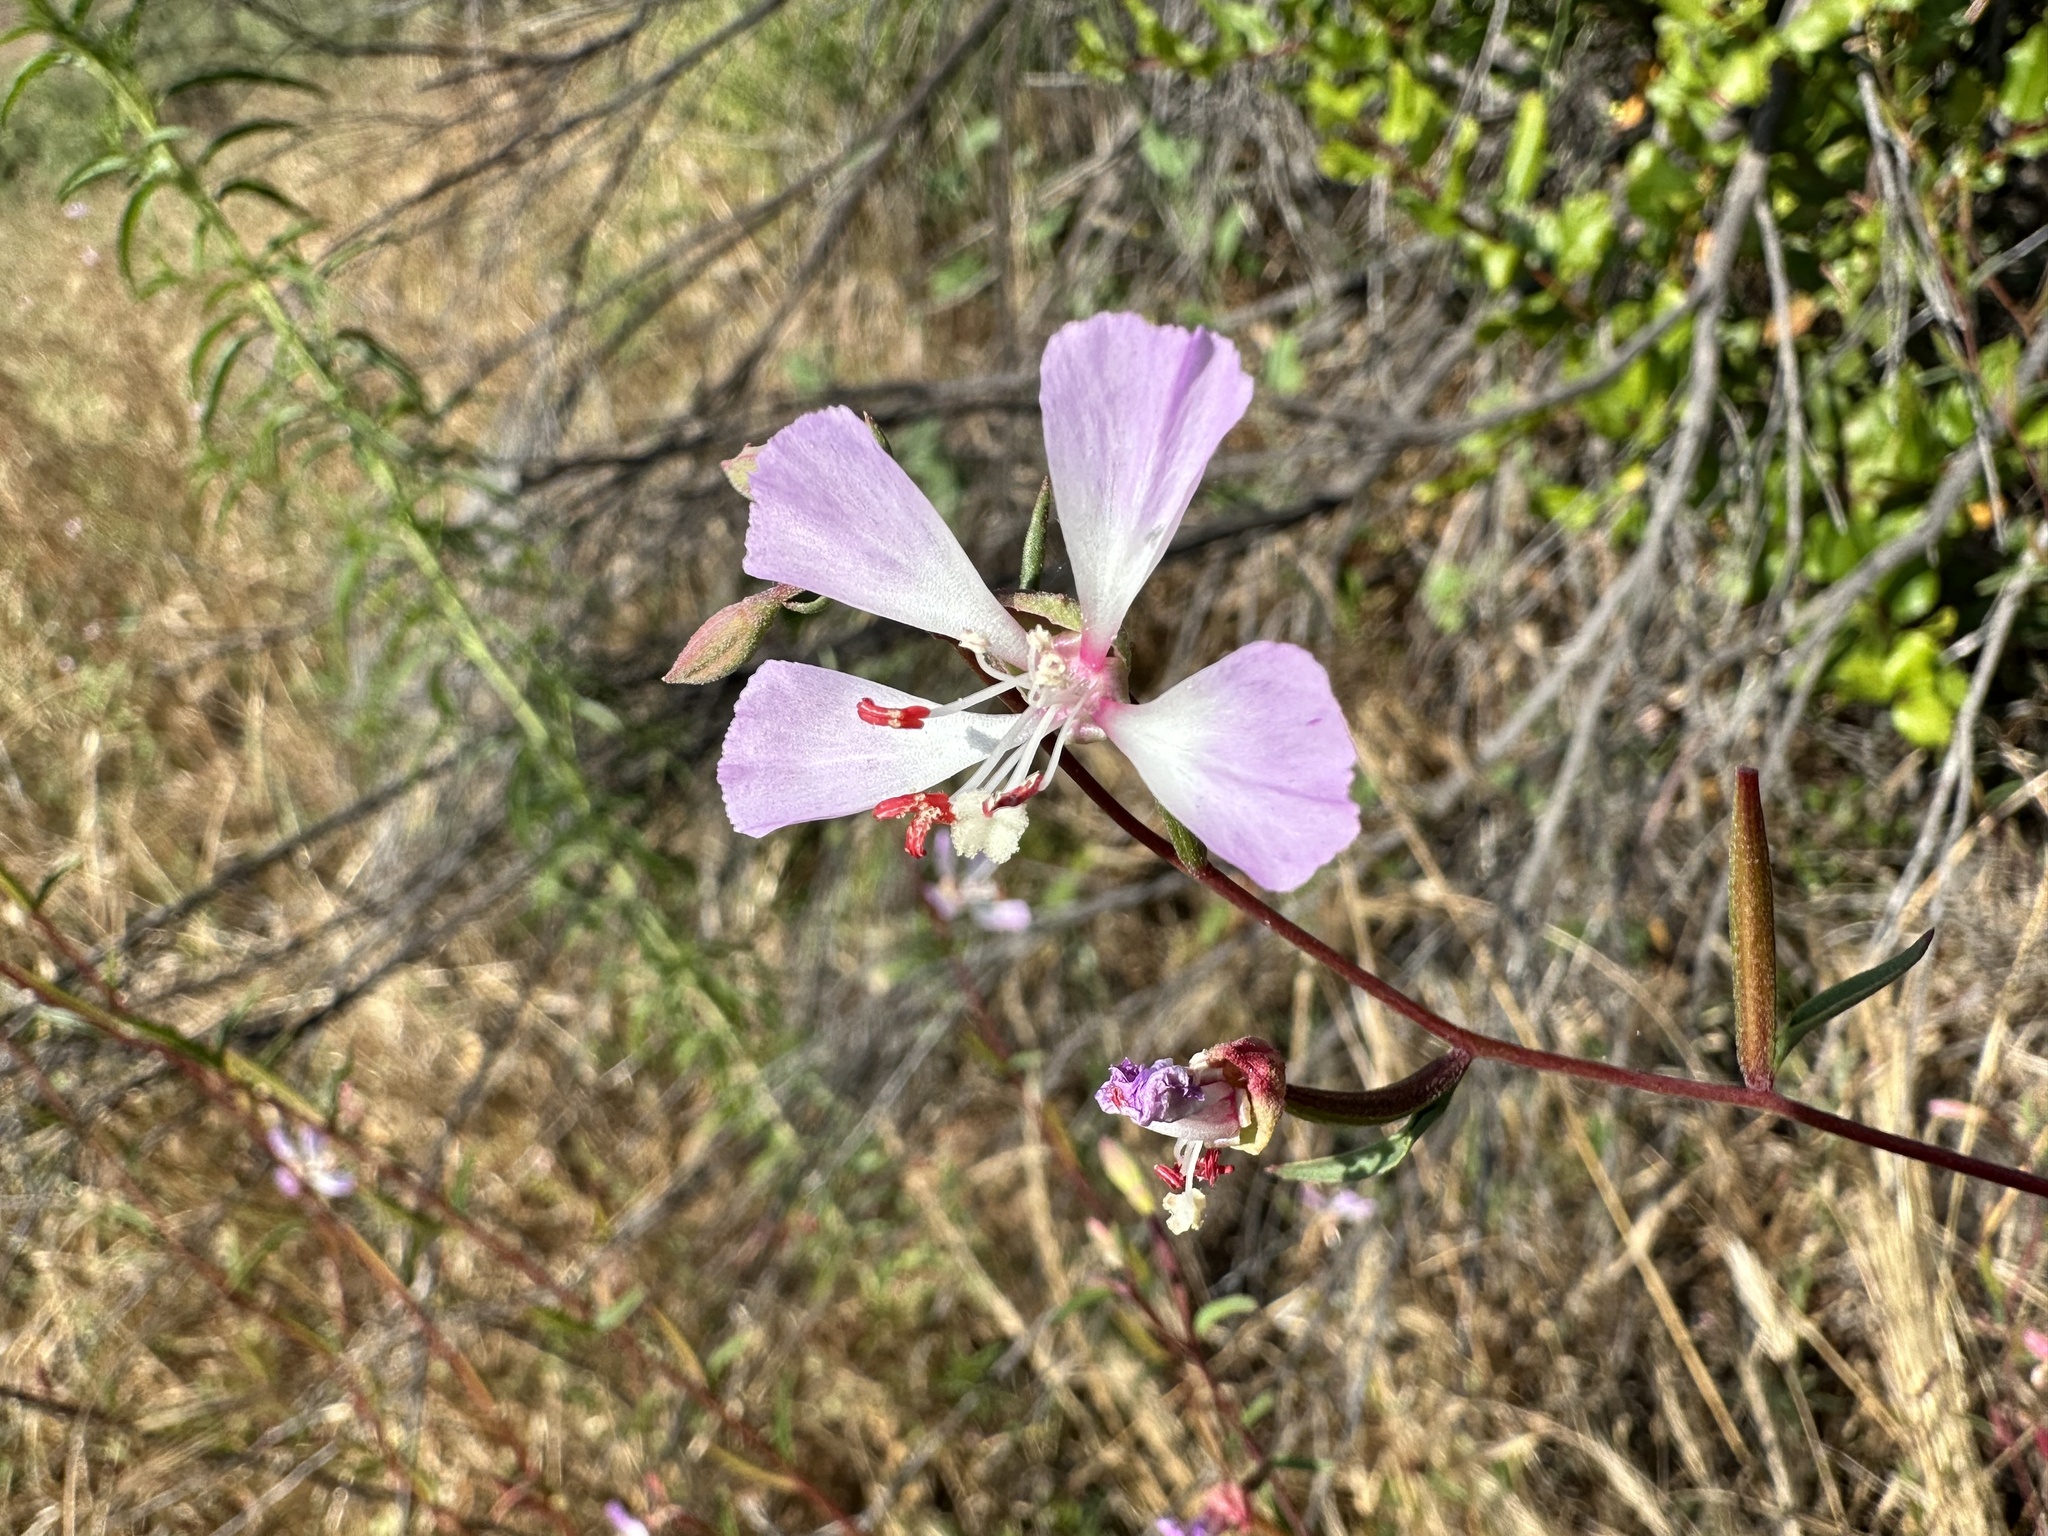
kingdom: Plantae
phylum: Tracheophyta
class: Magnoliopsida
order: Myrtales
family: Onagraceae
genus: Clarkia
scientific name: Clarkia delicata
